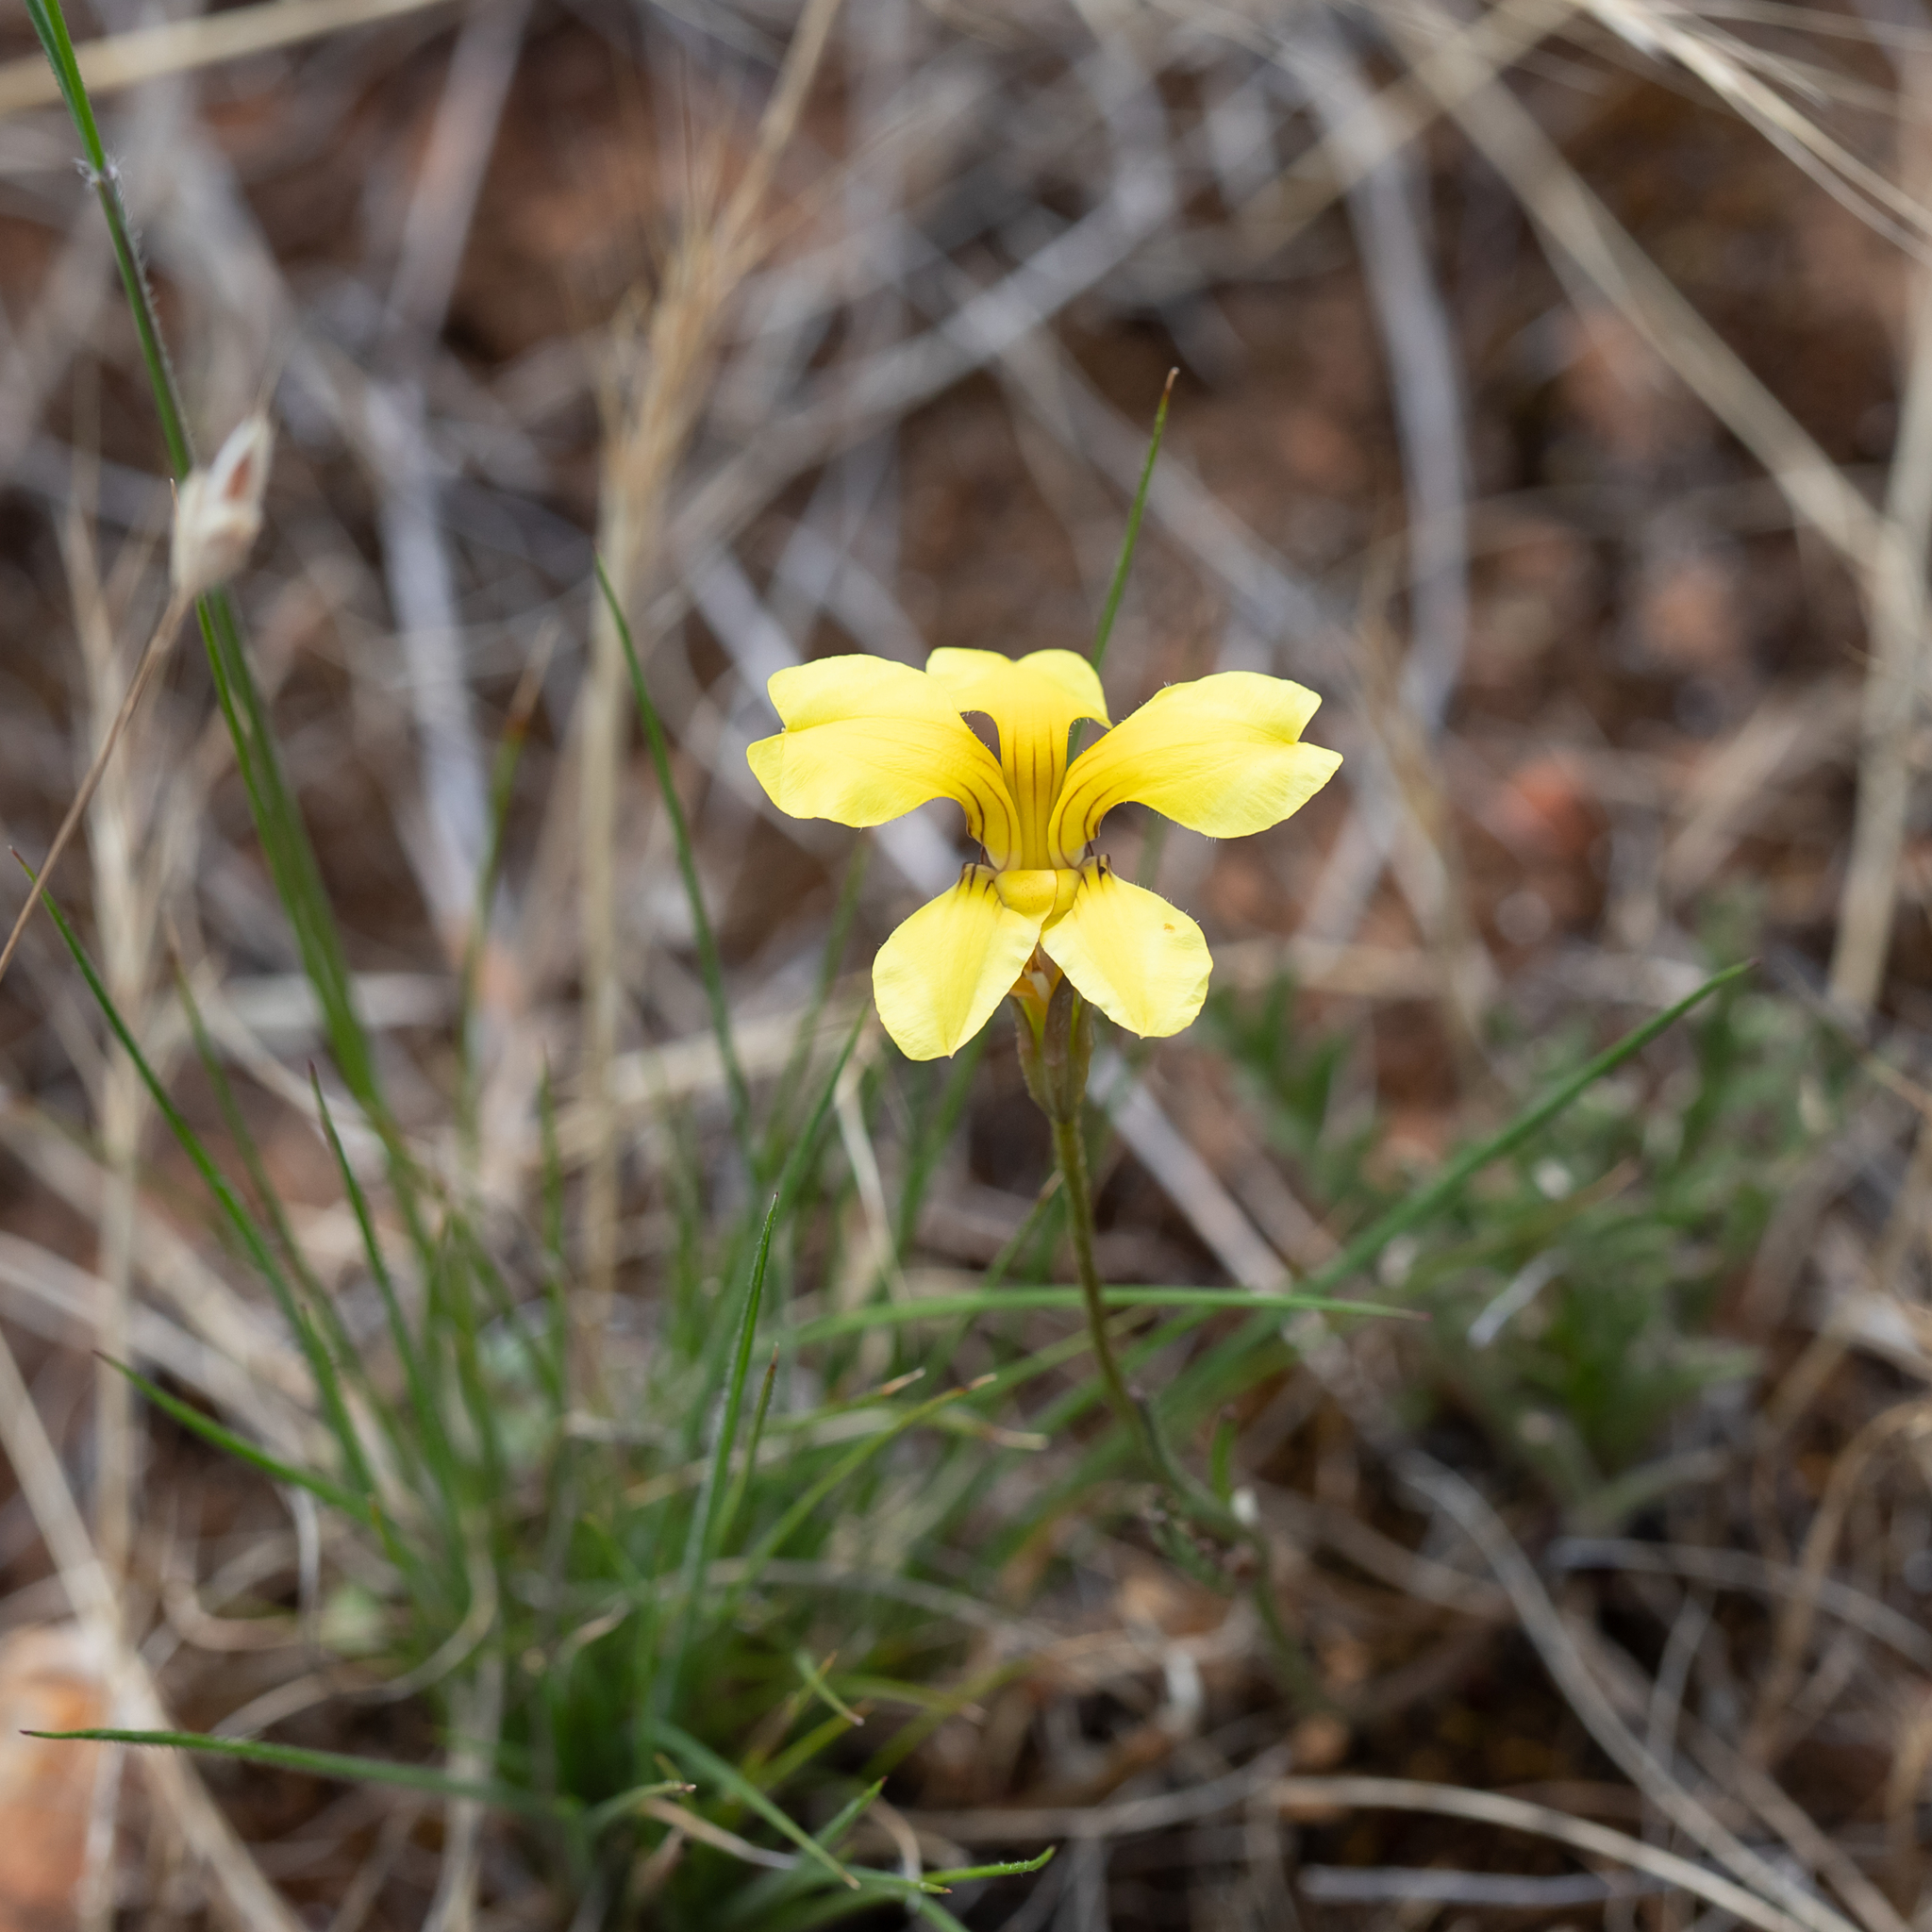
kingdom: Plantae
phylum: Tracheophyta
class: Magnoliopsida
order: Asterales
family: Goodeniaceae
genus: Goodenia
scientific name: Goodenia pinnatifida
